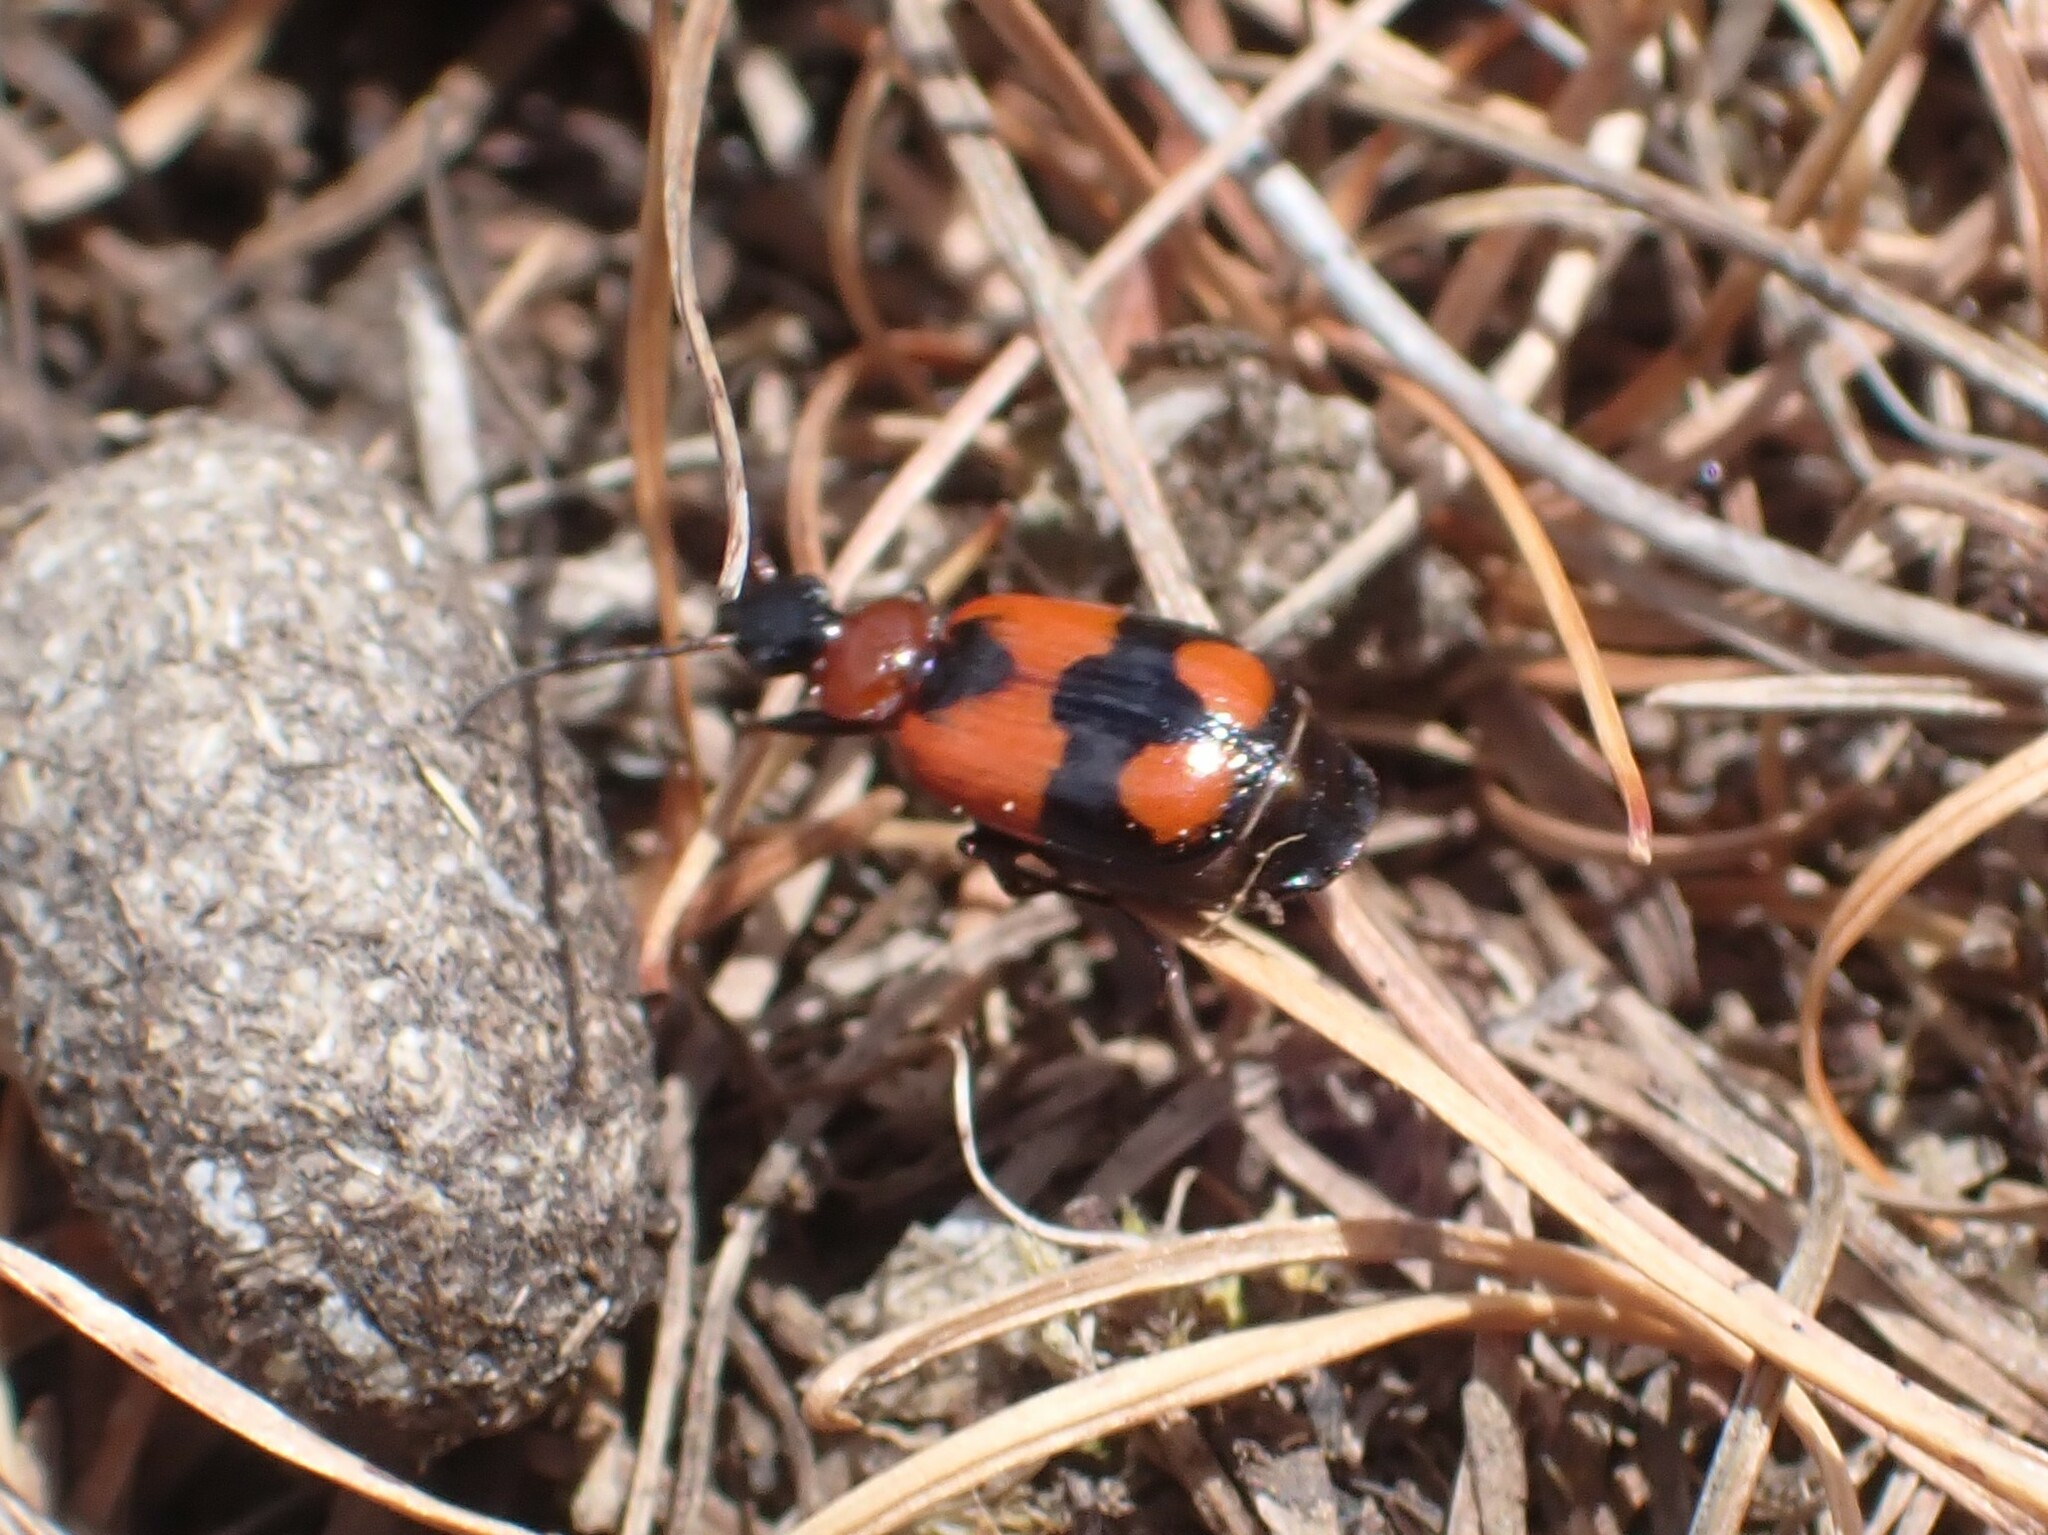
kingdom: Animalia
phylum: Arthropoda
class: Insecta
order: Coleoptera
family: Carabidae
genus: Lebia
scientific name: Lebia cruxminor
